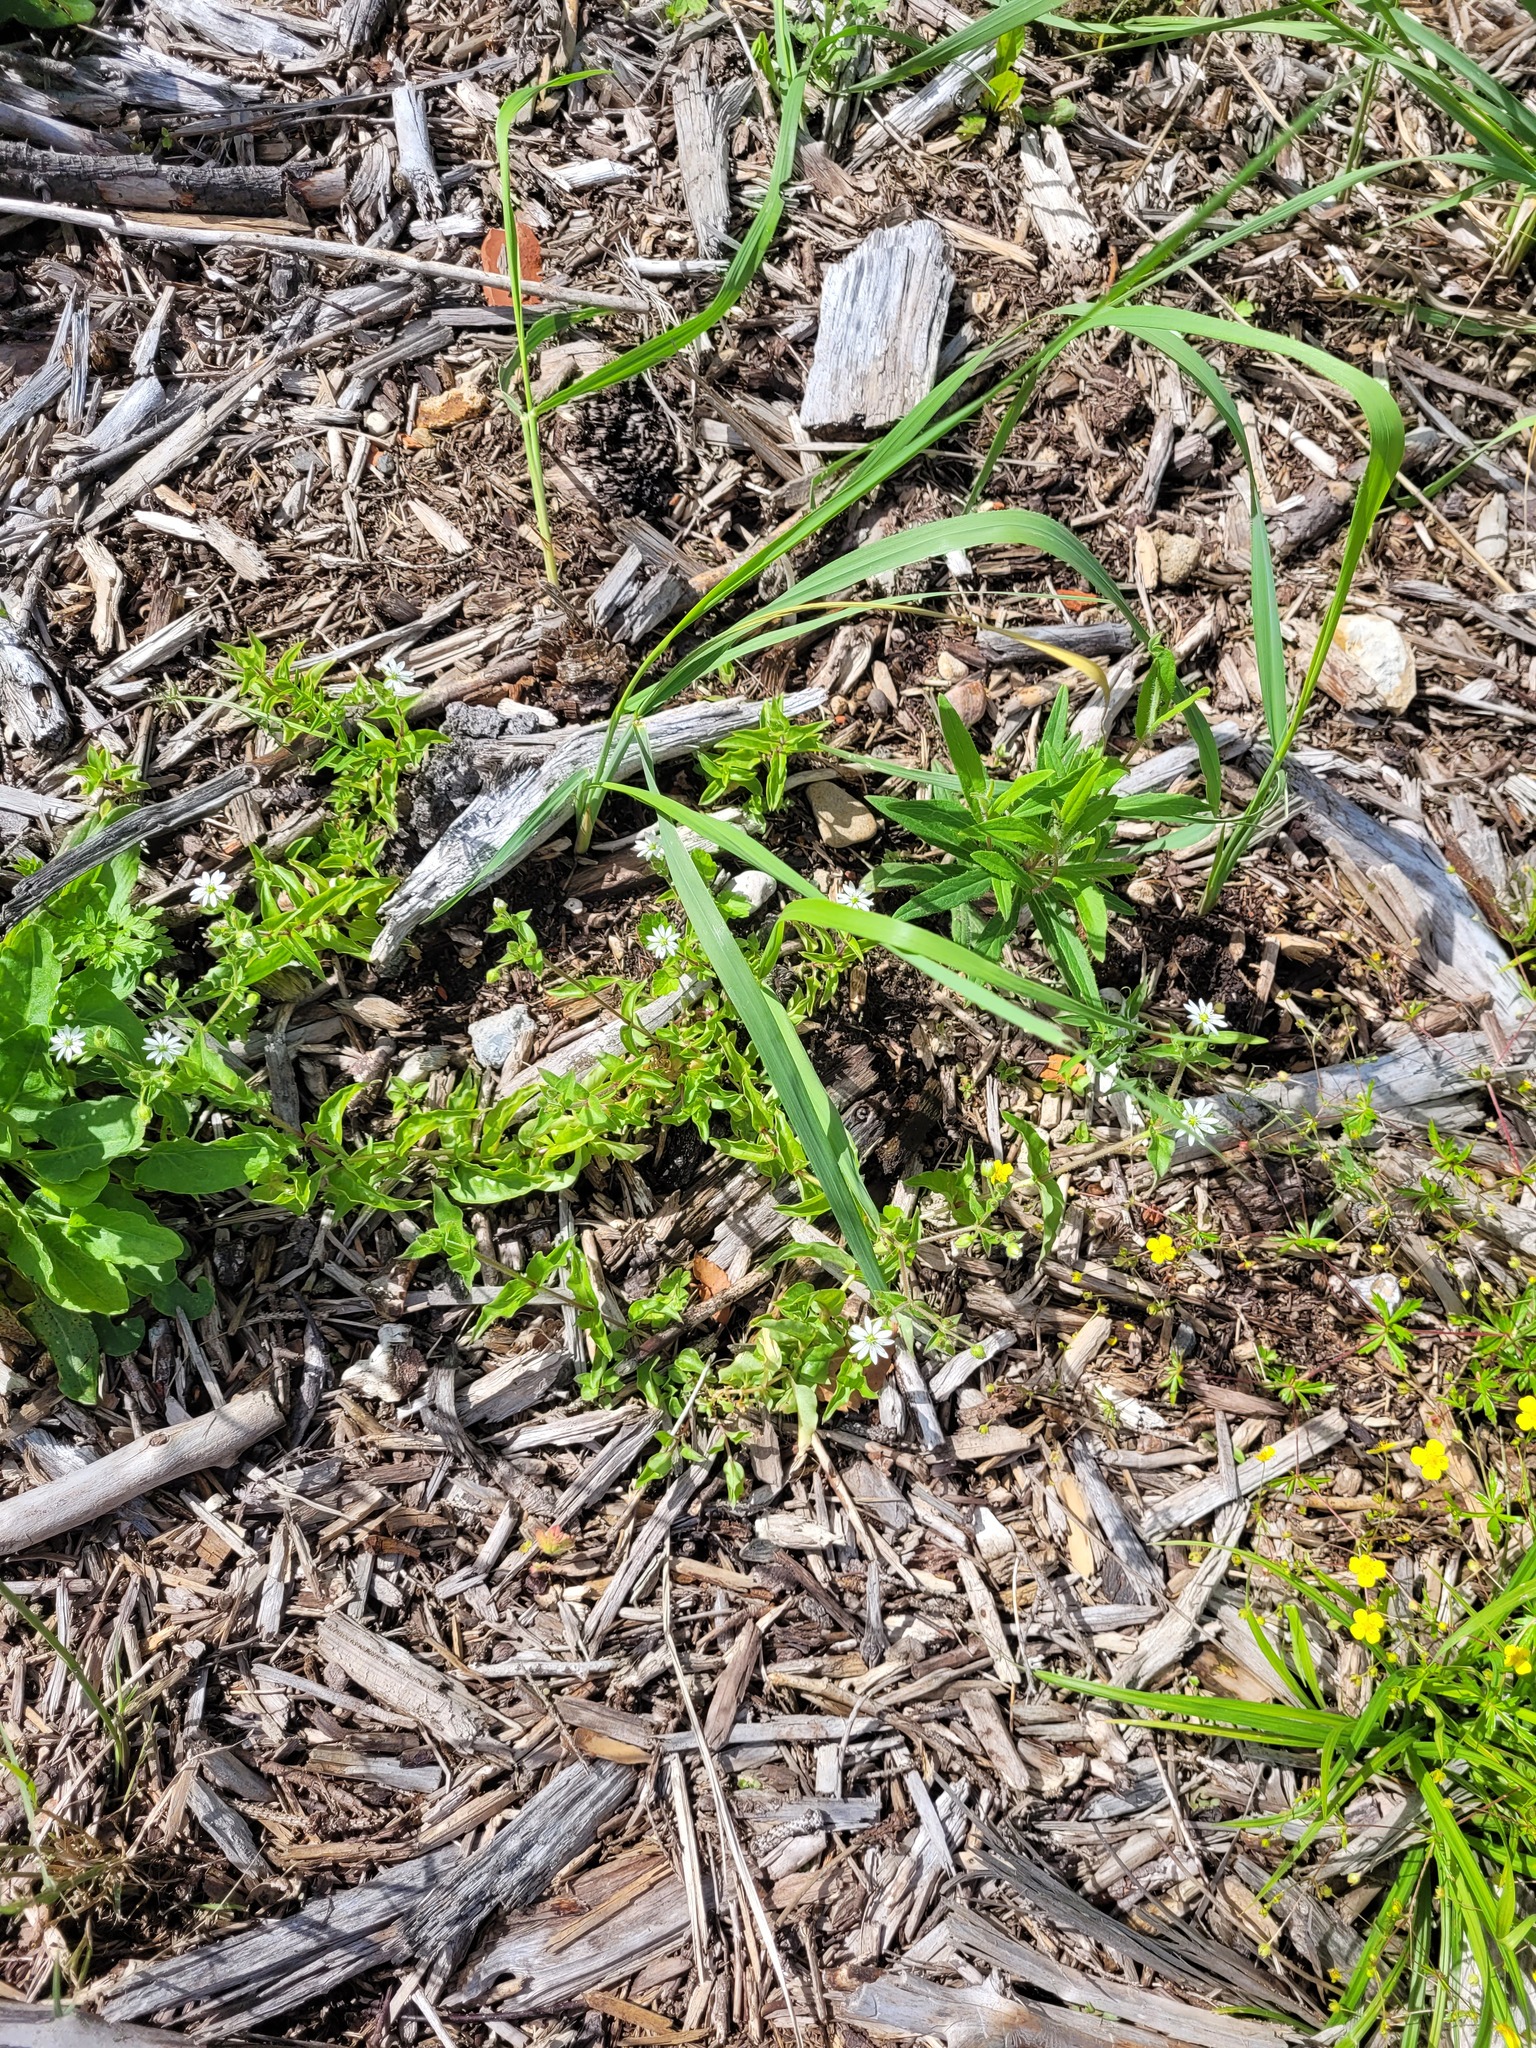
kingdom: Plantae
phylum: Tracheophyta
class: Magnoliopsida
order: Caryophyllales
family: Caryophyllaceae
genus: Stellaria
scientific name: Stellaria aquatica
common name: Water chickweed
